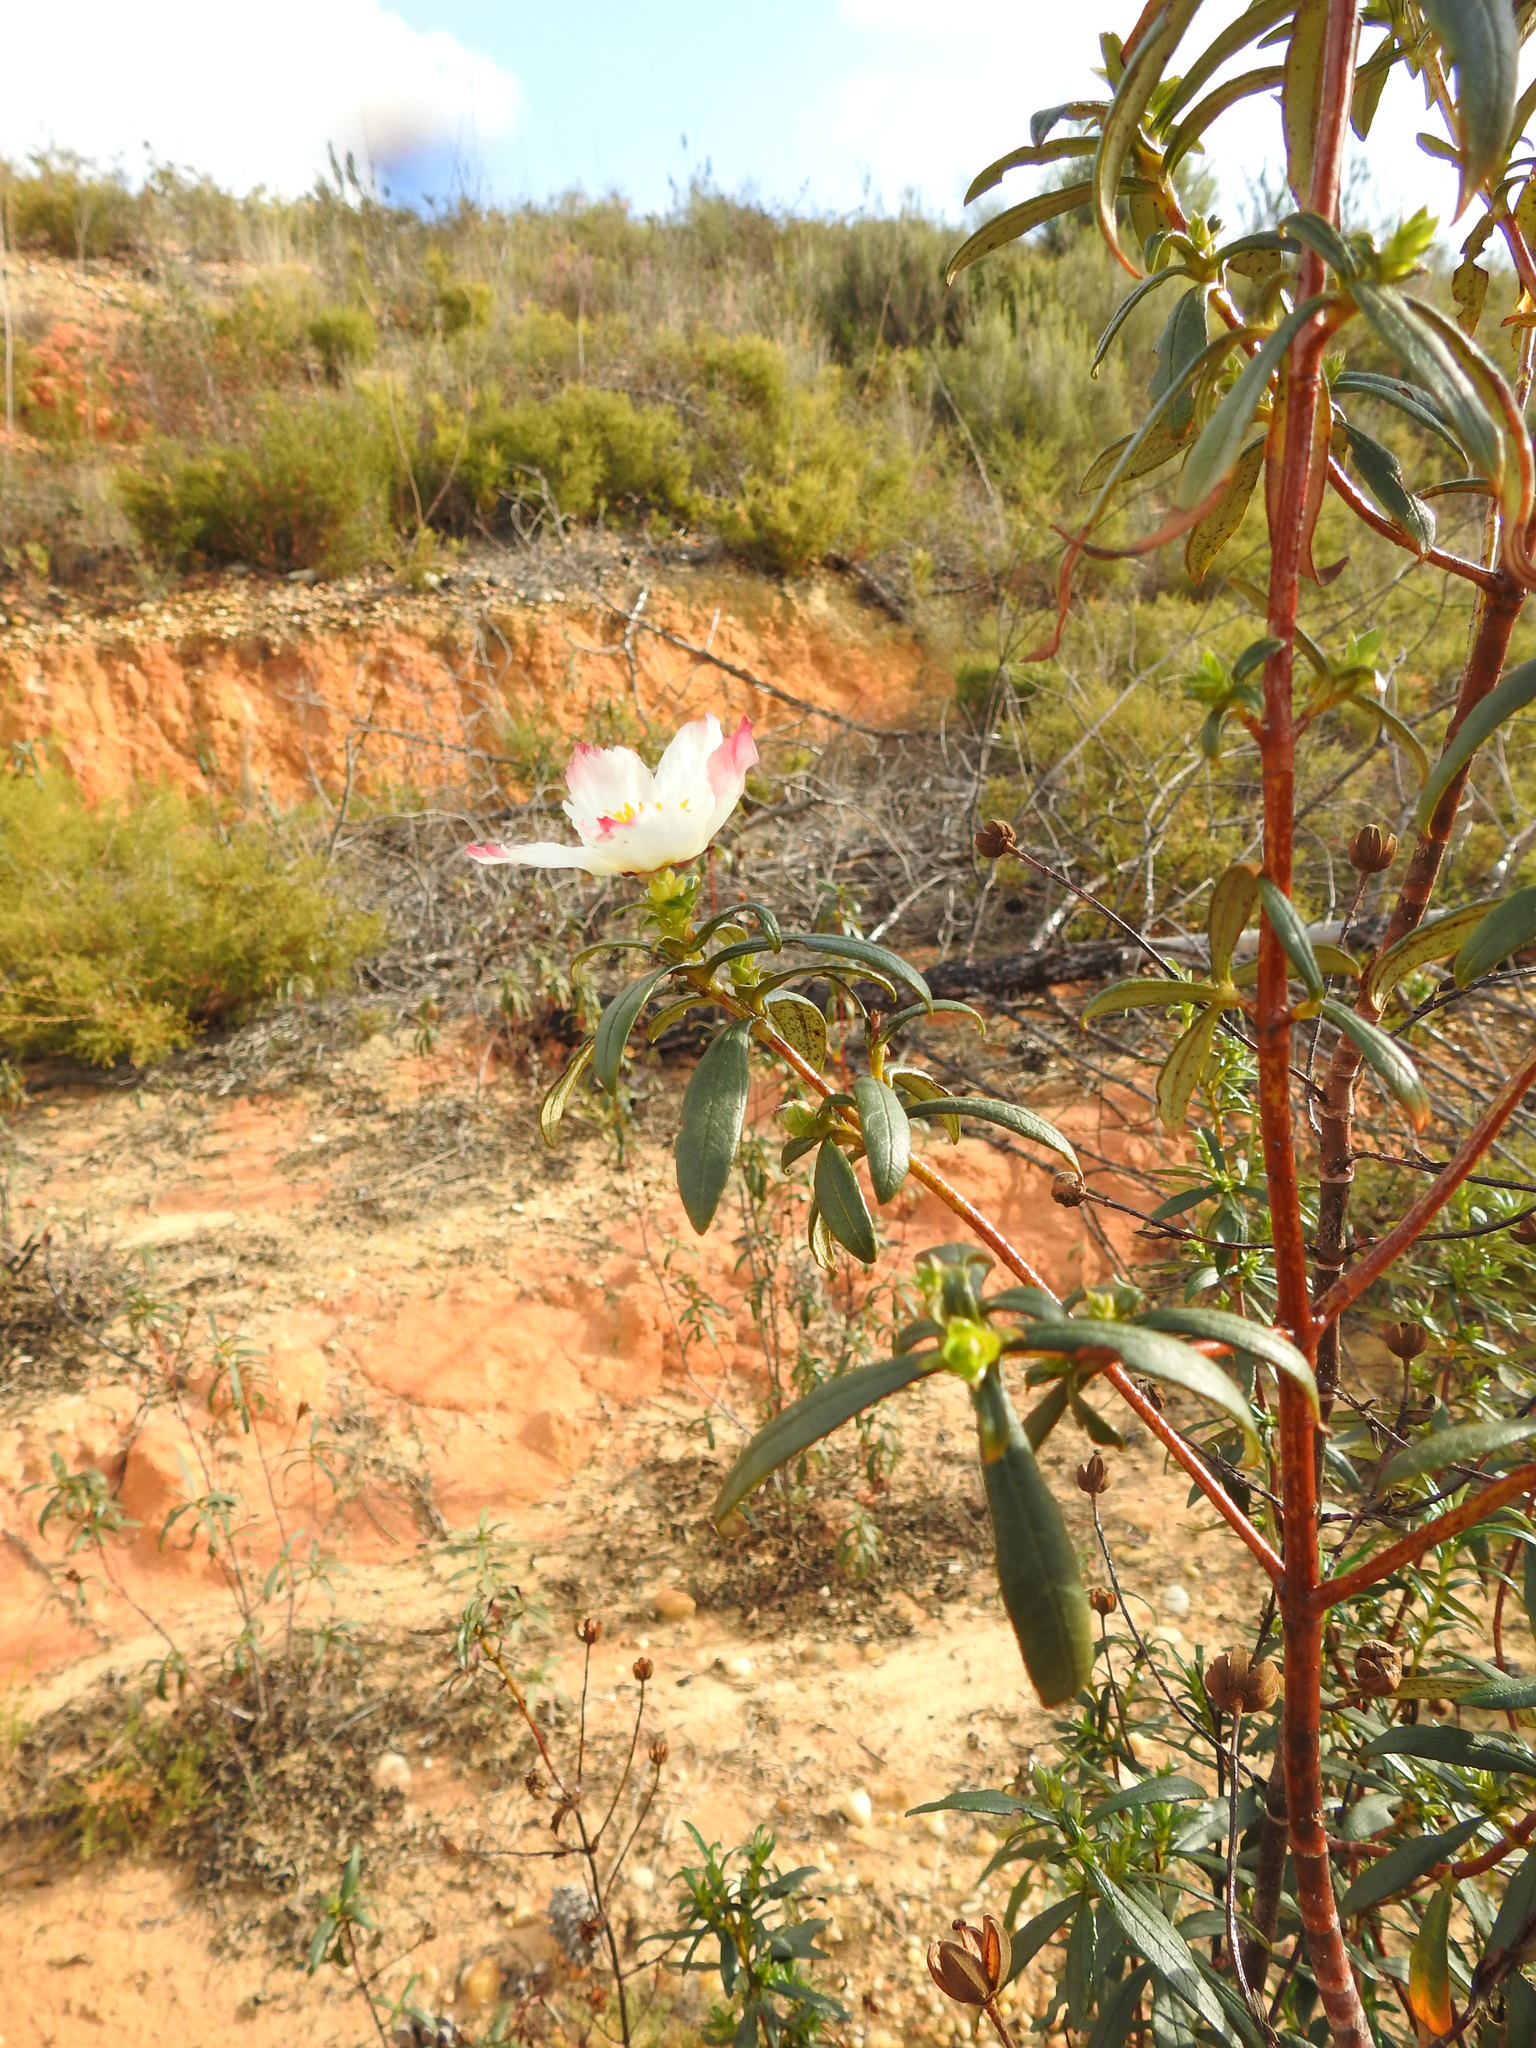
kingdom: Plantae
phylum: Tracheophyta
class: Magnoliopsida
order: Malvales
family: Cistaceae
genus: Cistus
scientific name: Cistus ladanifer
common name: Common gum cistus
